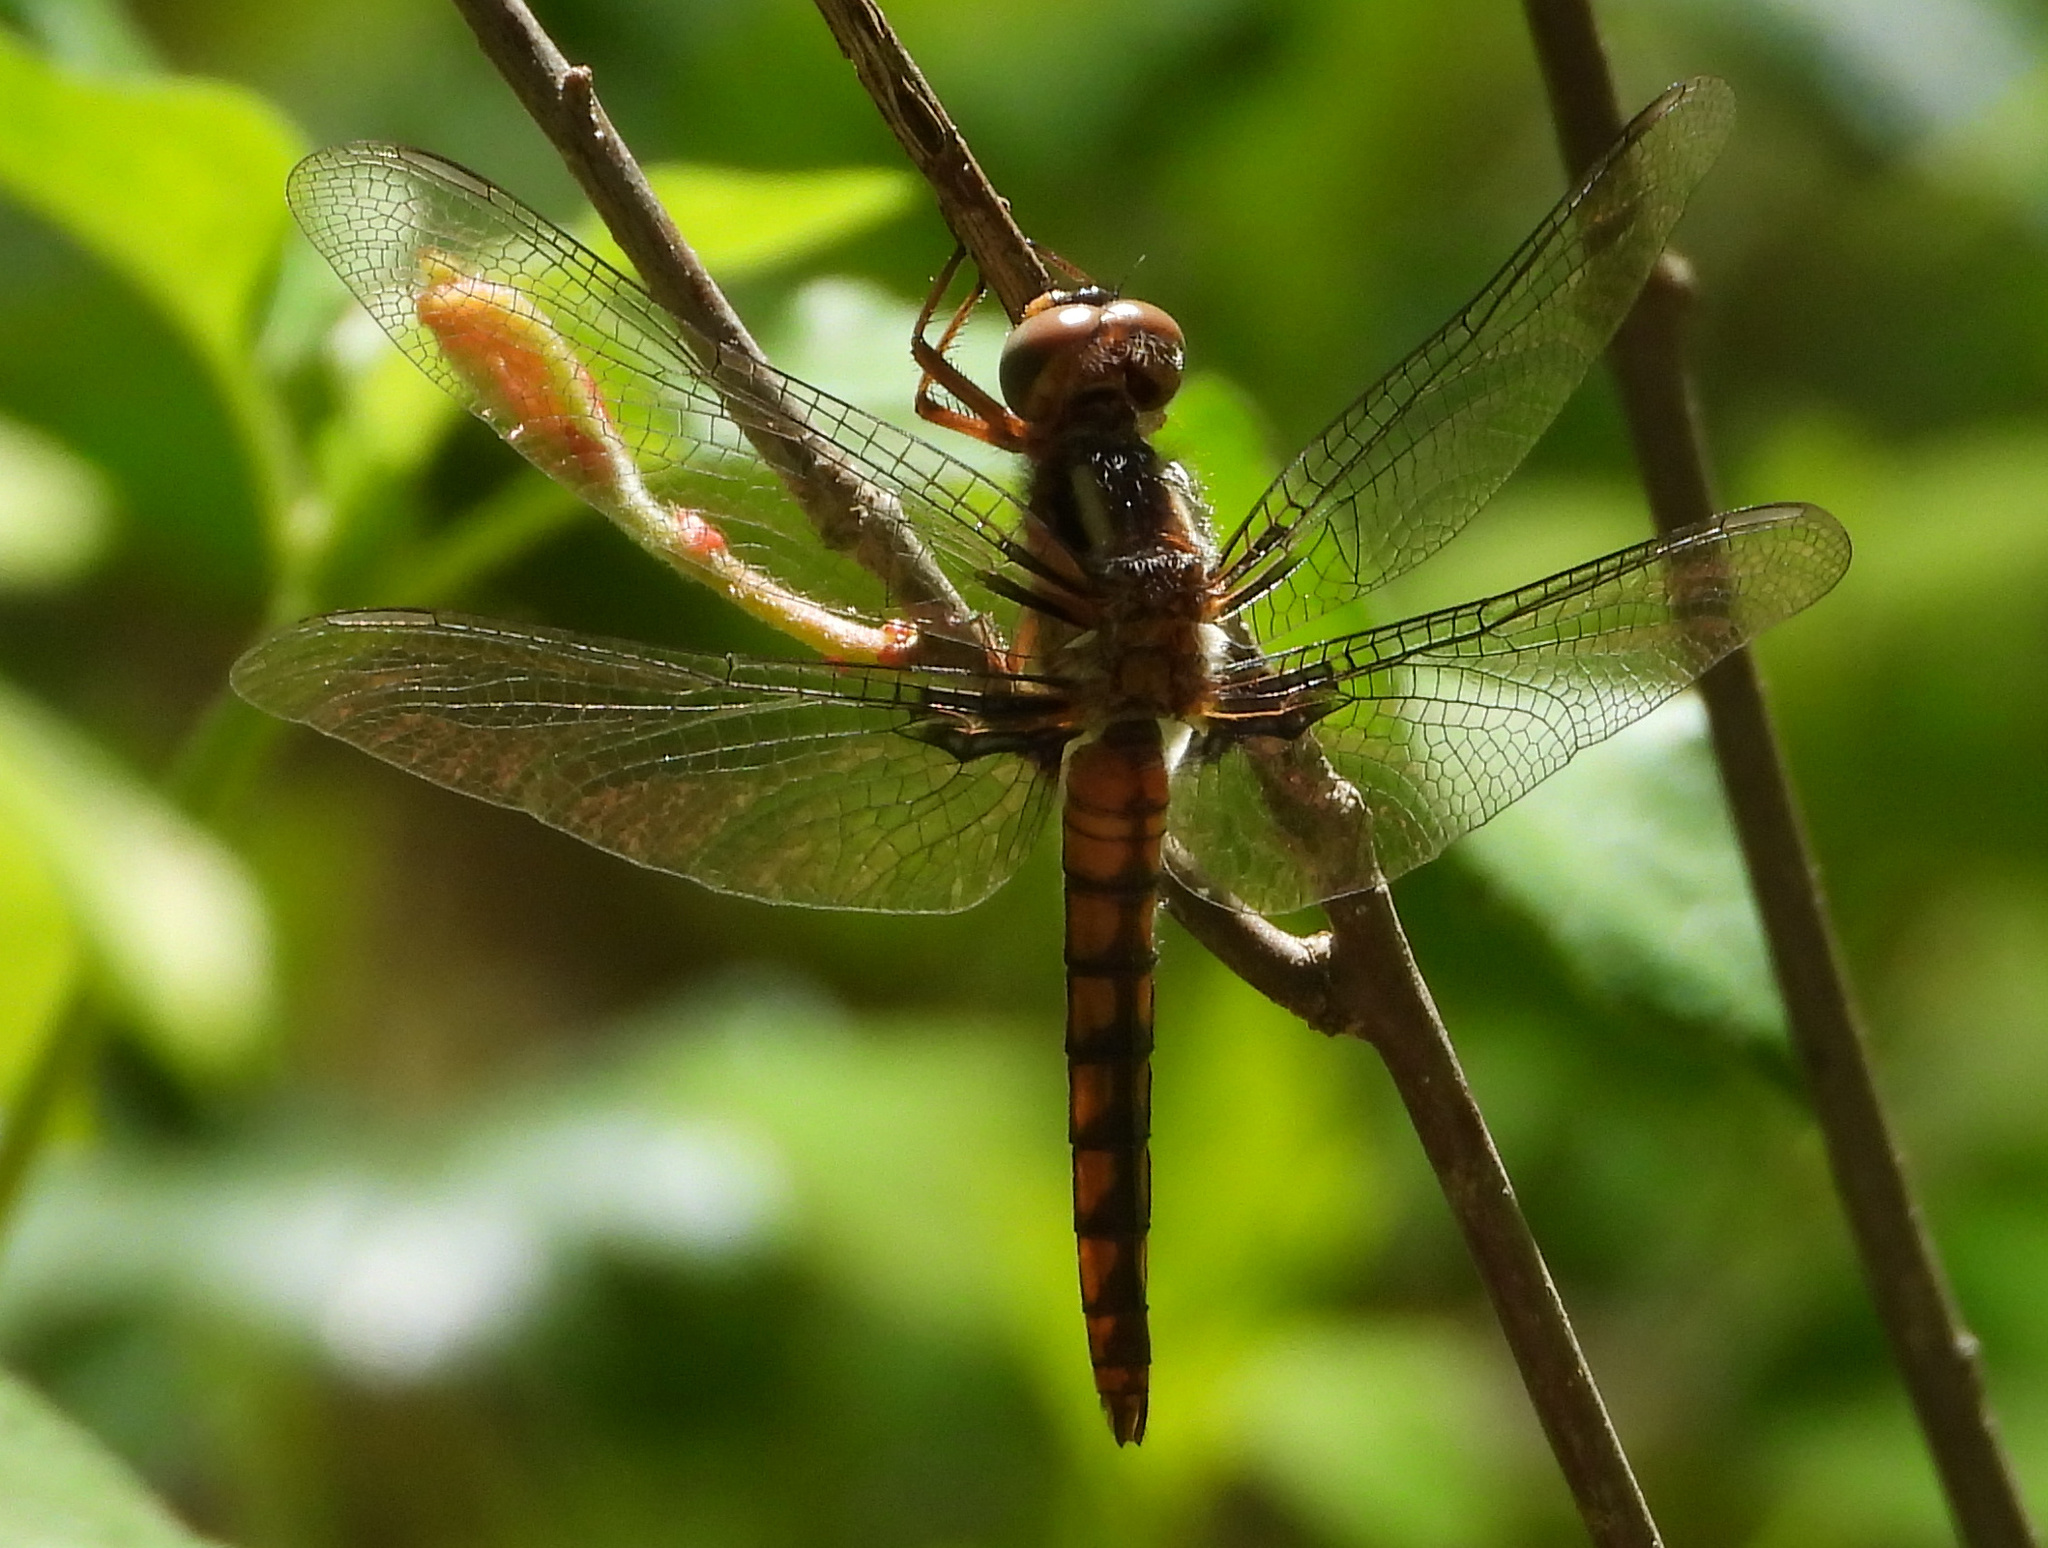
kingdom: Animalia
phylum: Arthropoda
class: Insecta
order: Odonata
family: Libellulidae
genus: Ladona
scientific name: Ladona deplanata
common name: Blue corporal
